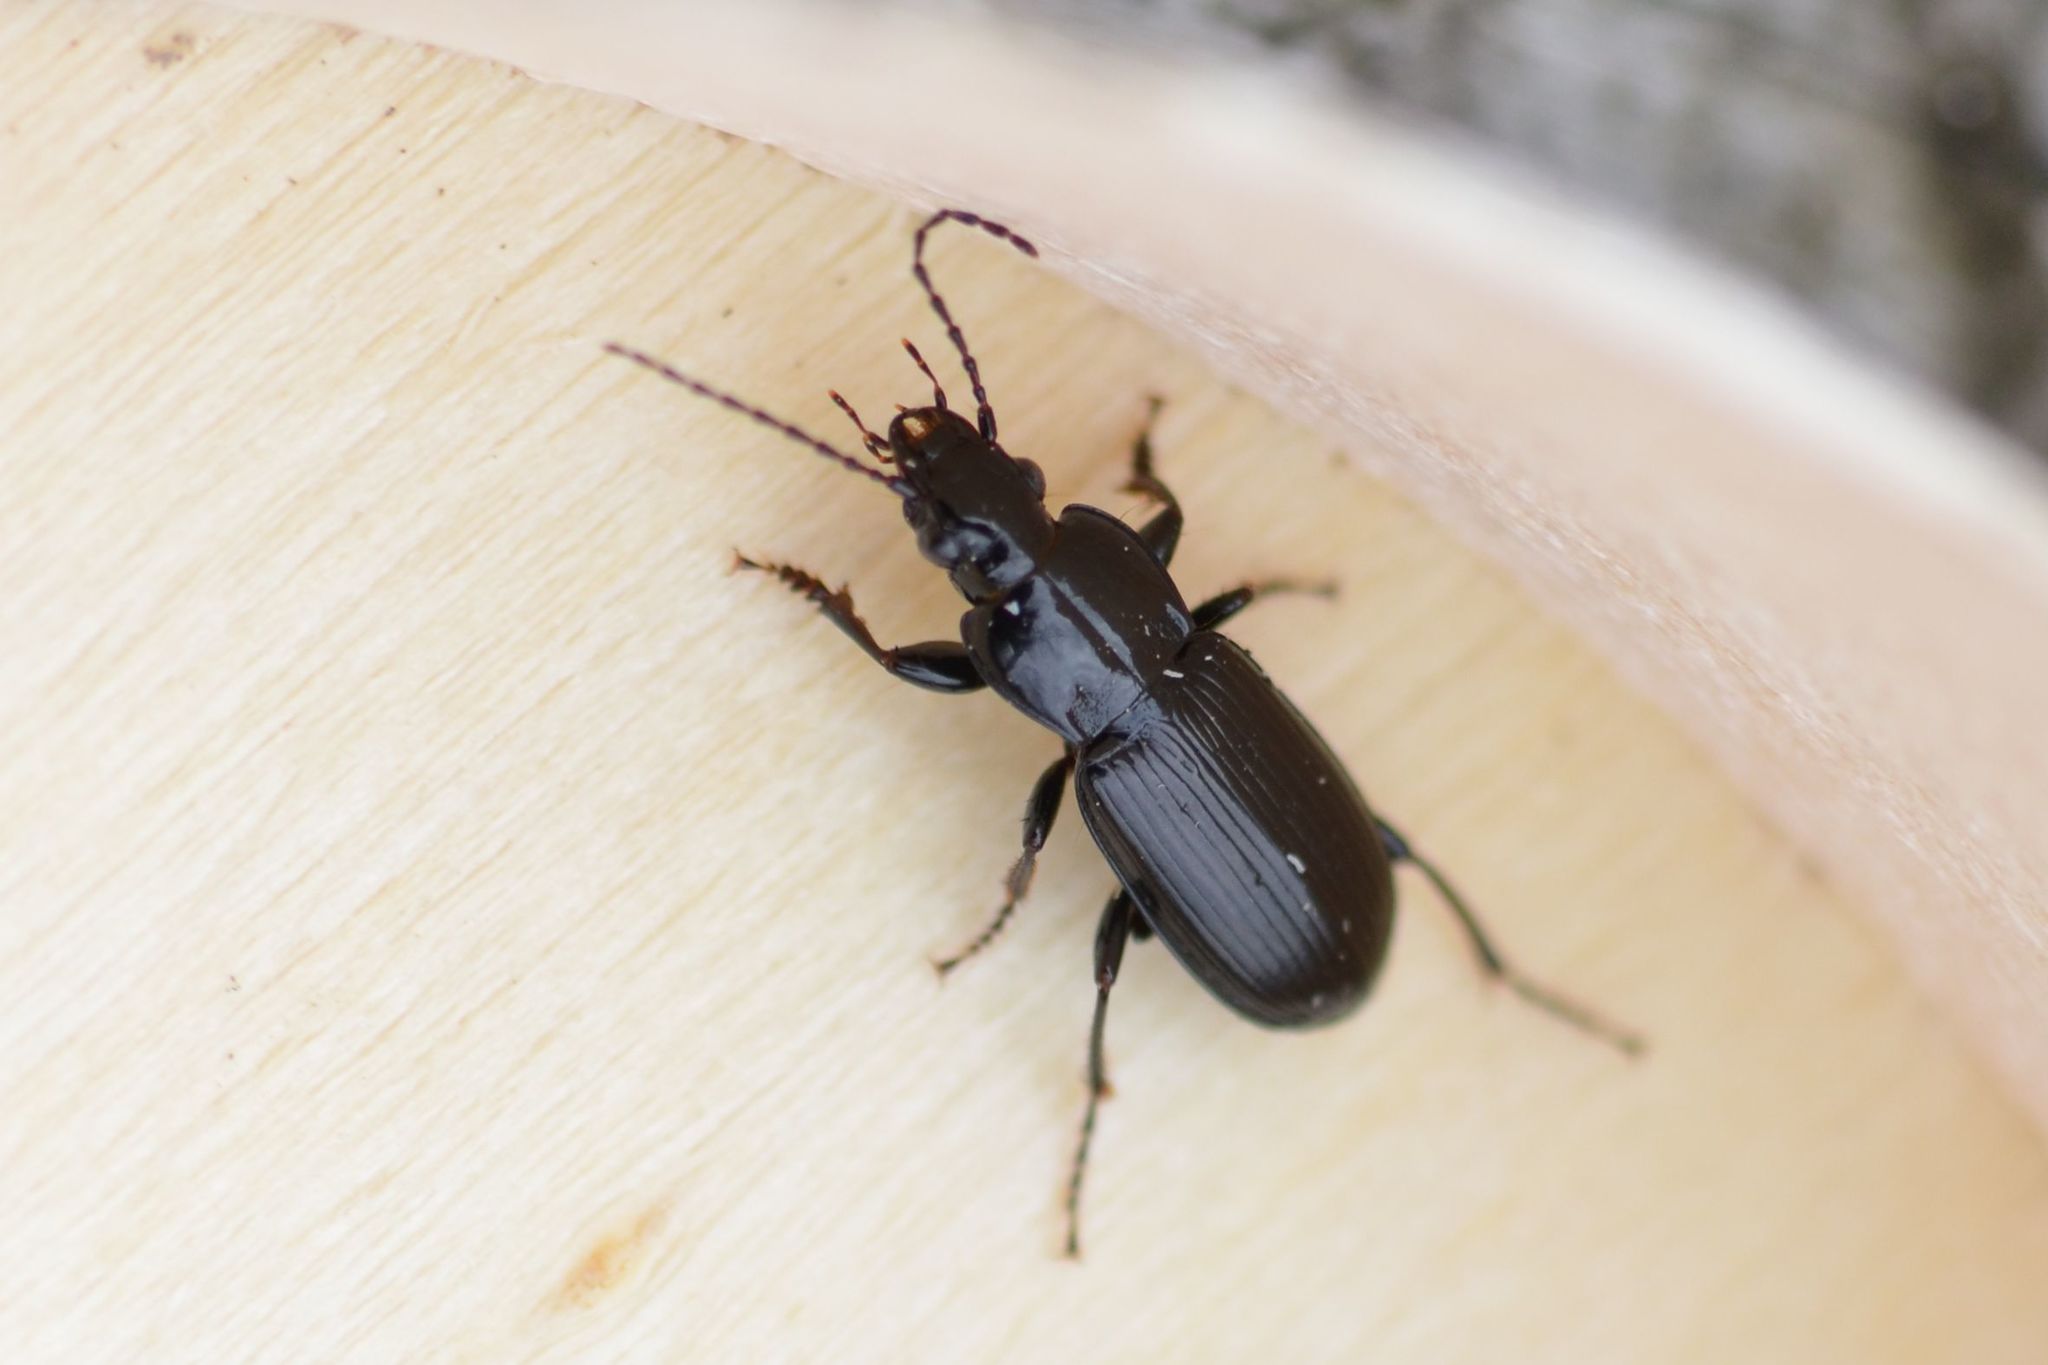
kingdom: Animalia
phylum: Arthropoda
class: Insecta
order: Coleoptera
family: Carabidae
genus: Pterostichus
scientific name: Pterostichus anthracinus
